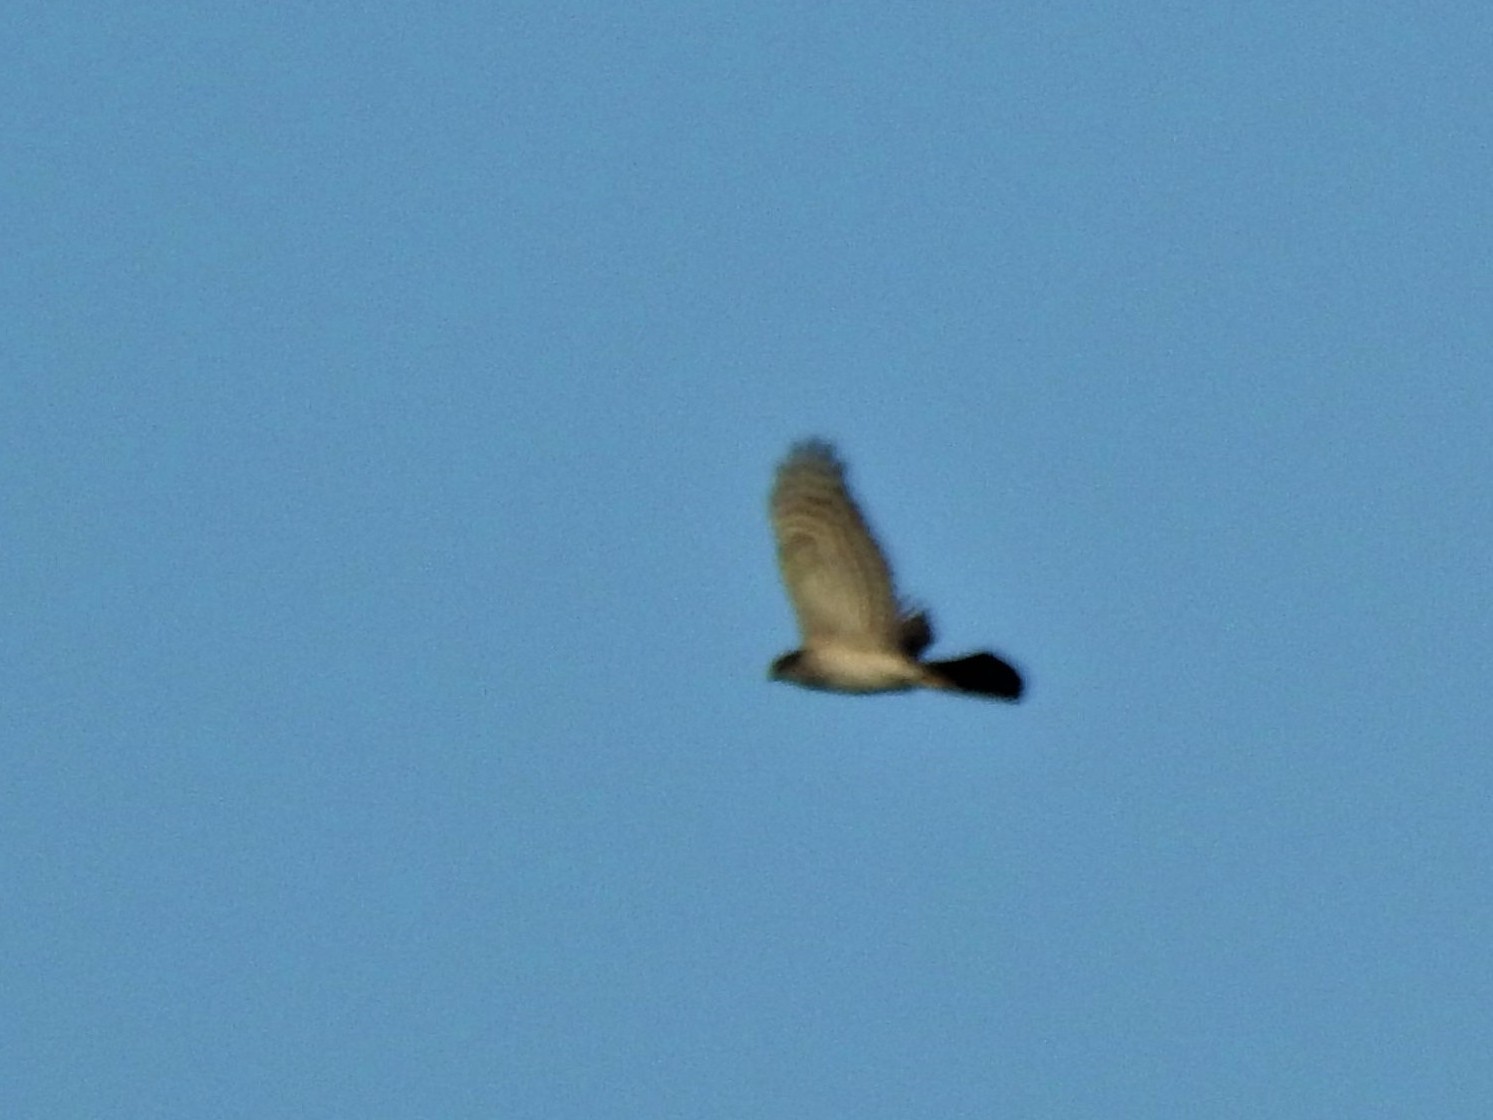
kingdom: Animalia
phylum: Chordata
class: Aves
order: Accipitriformes
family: Accipitridae
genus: Accipiter
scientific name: Accipiter nisus
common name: Eurasian sparrowhawk
